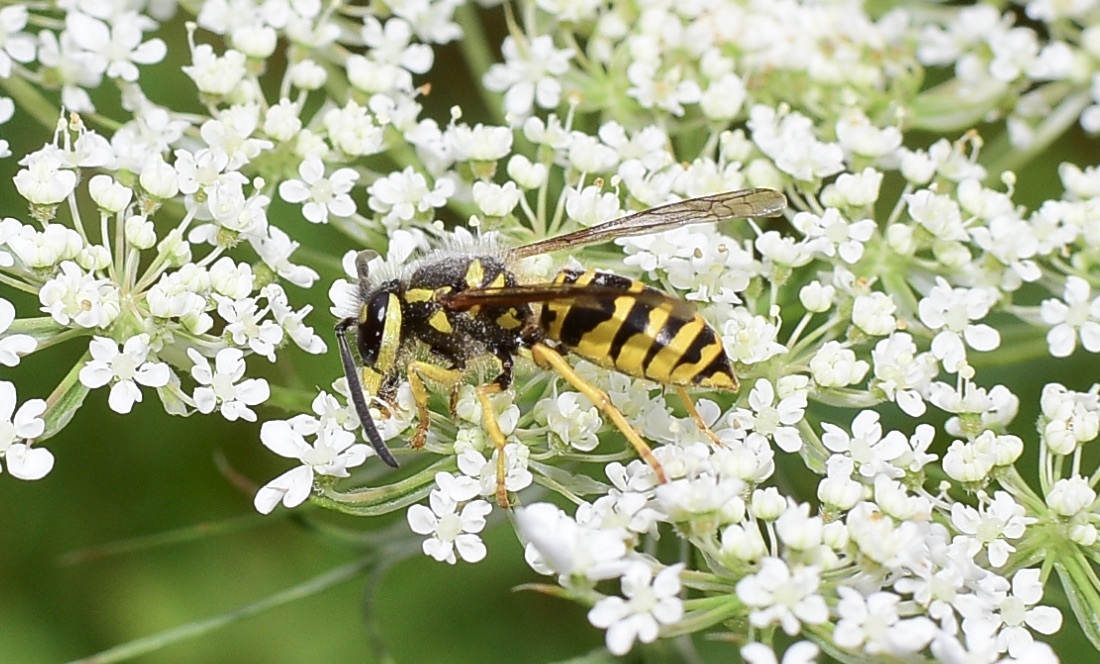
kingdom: Animalia
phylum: Arthropoda
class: Insecta
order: Hymenoptera
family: Vespidae
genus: Vespula
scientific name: Vespula maculifrons
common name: Eastern yellowjacket
